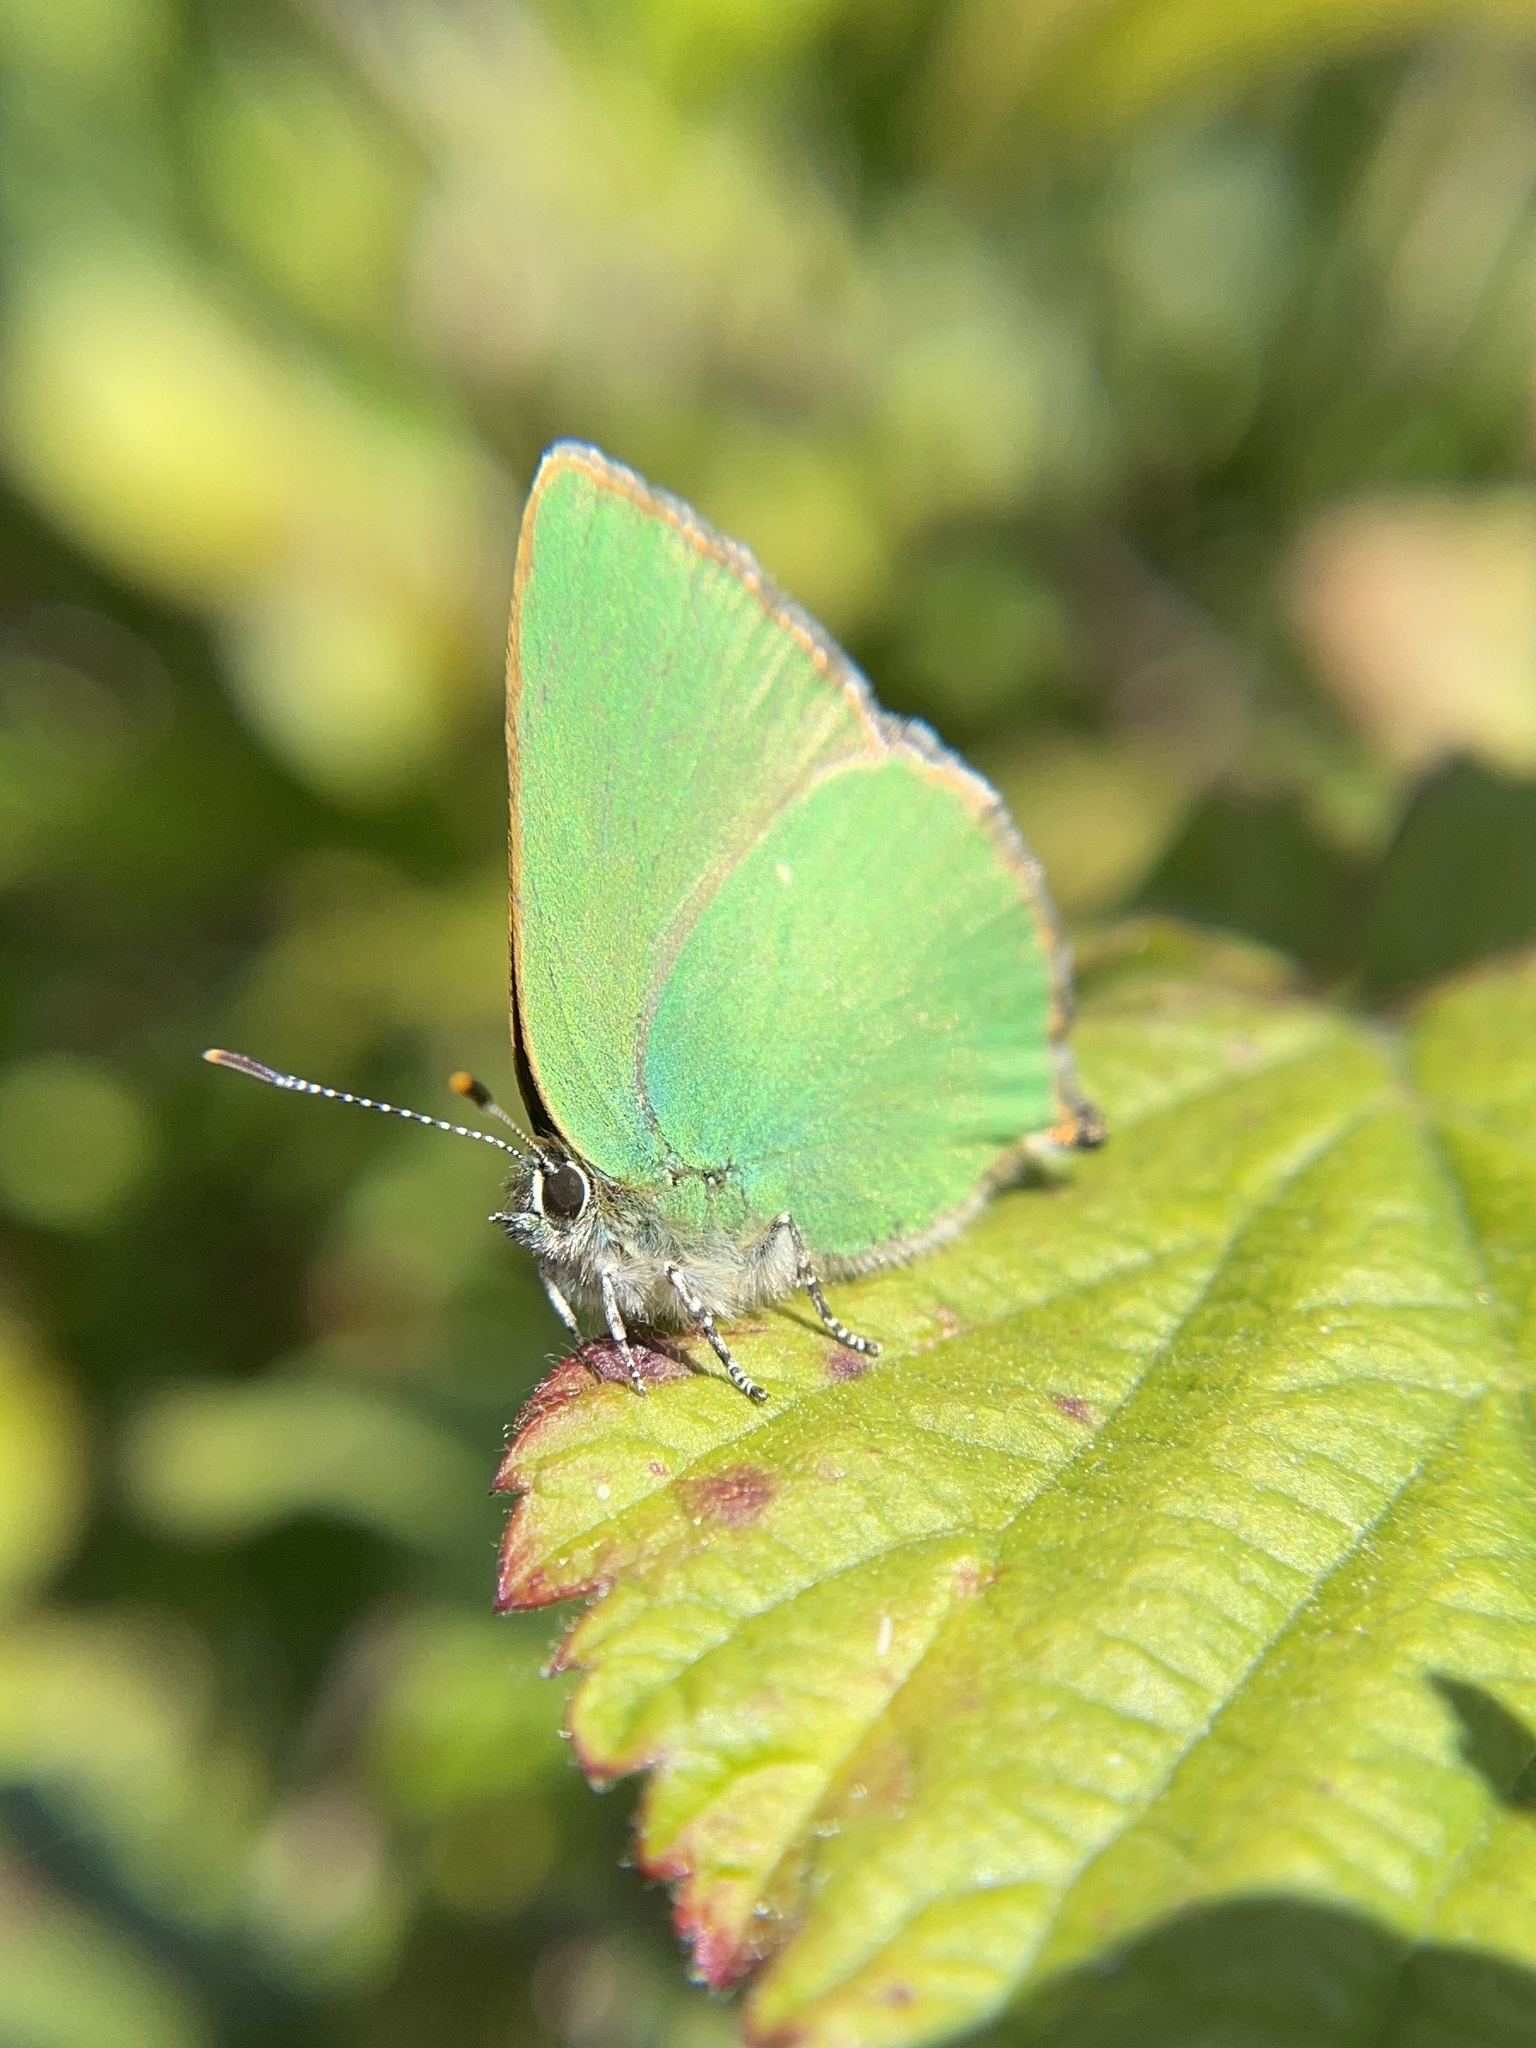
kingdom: Animalia
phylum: Arthropoda
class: Insecta
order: Lepidoptera
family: Lycaenidae
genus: Callophrys
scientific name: Callophrys rubi
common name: Green hairstreak
